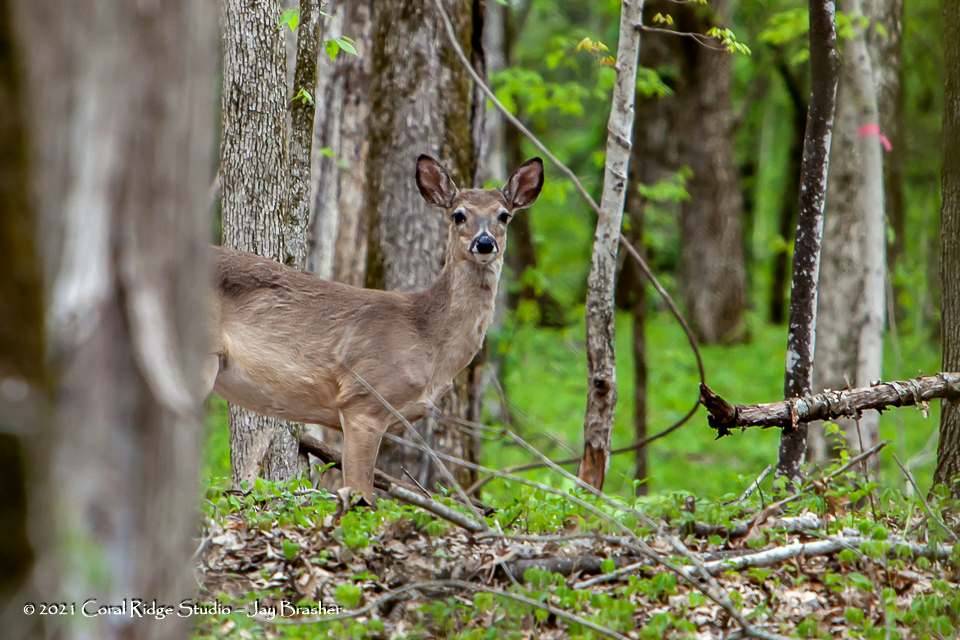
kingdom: Animalia
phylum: Chordata
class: Mammalia
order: Artiodactyla
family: Cervidae
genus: Odocoileus
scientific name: Odocoileus virginianus
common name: White-tailed deer
